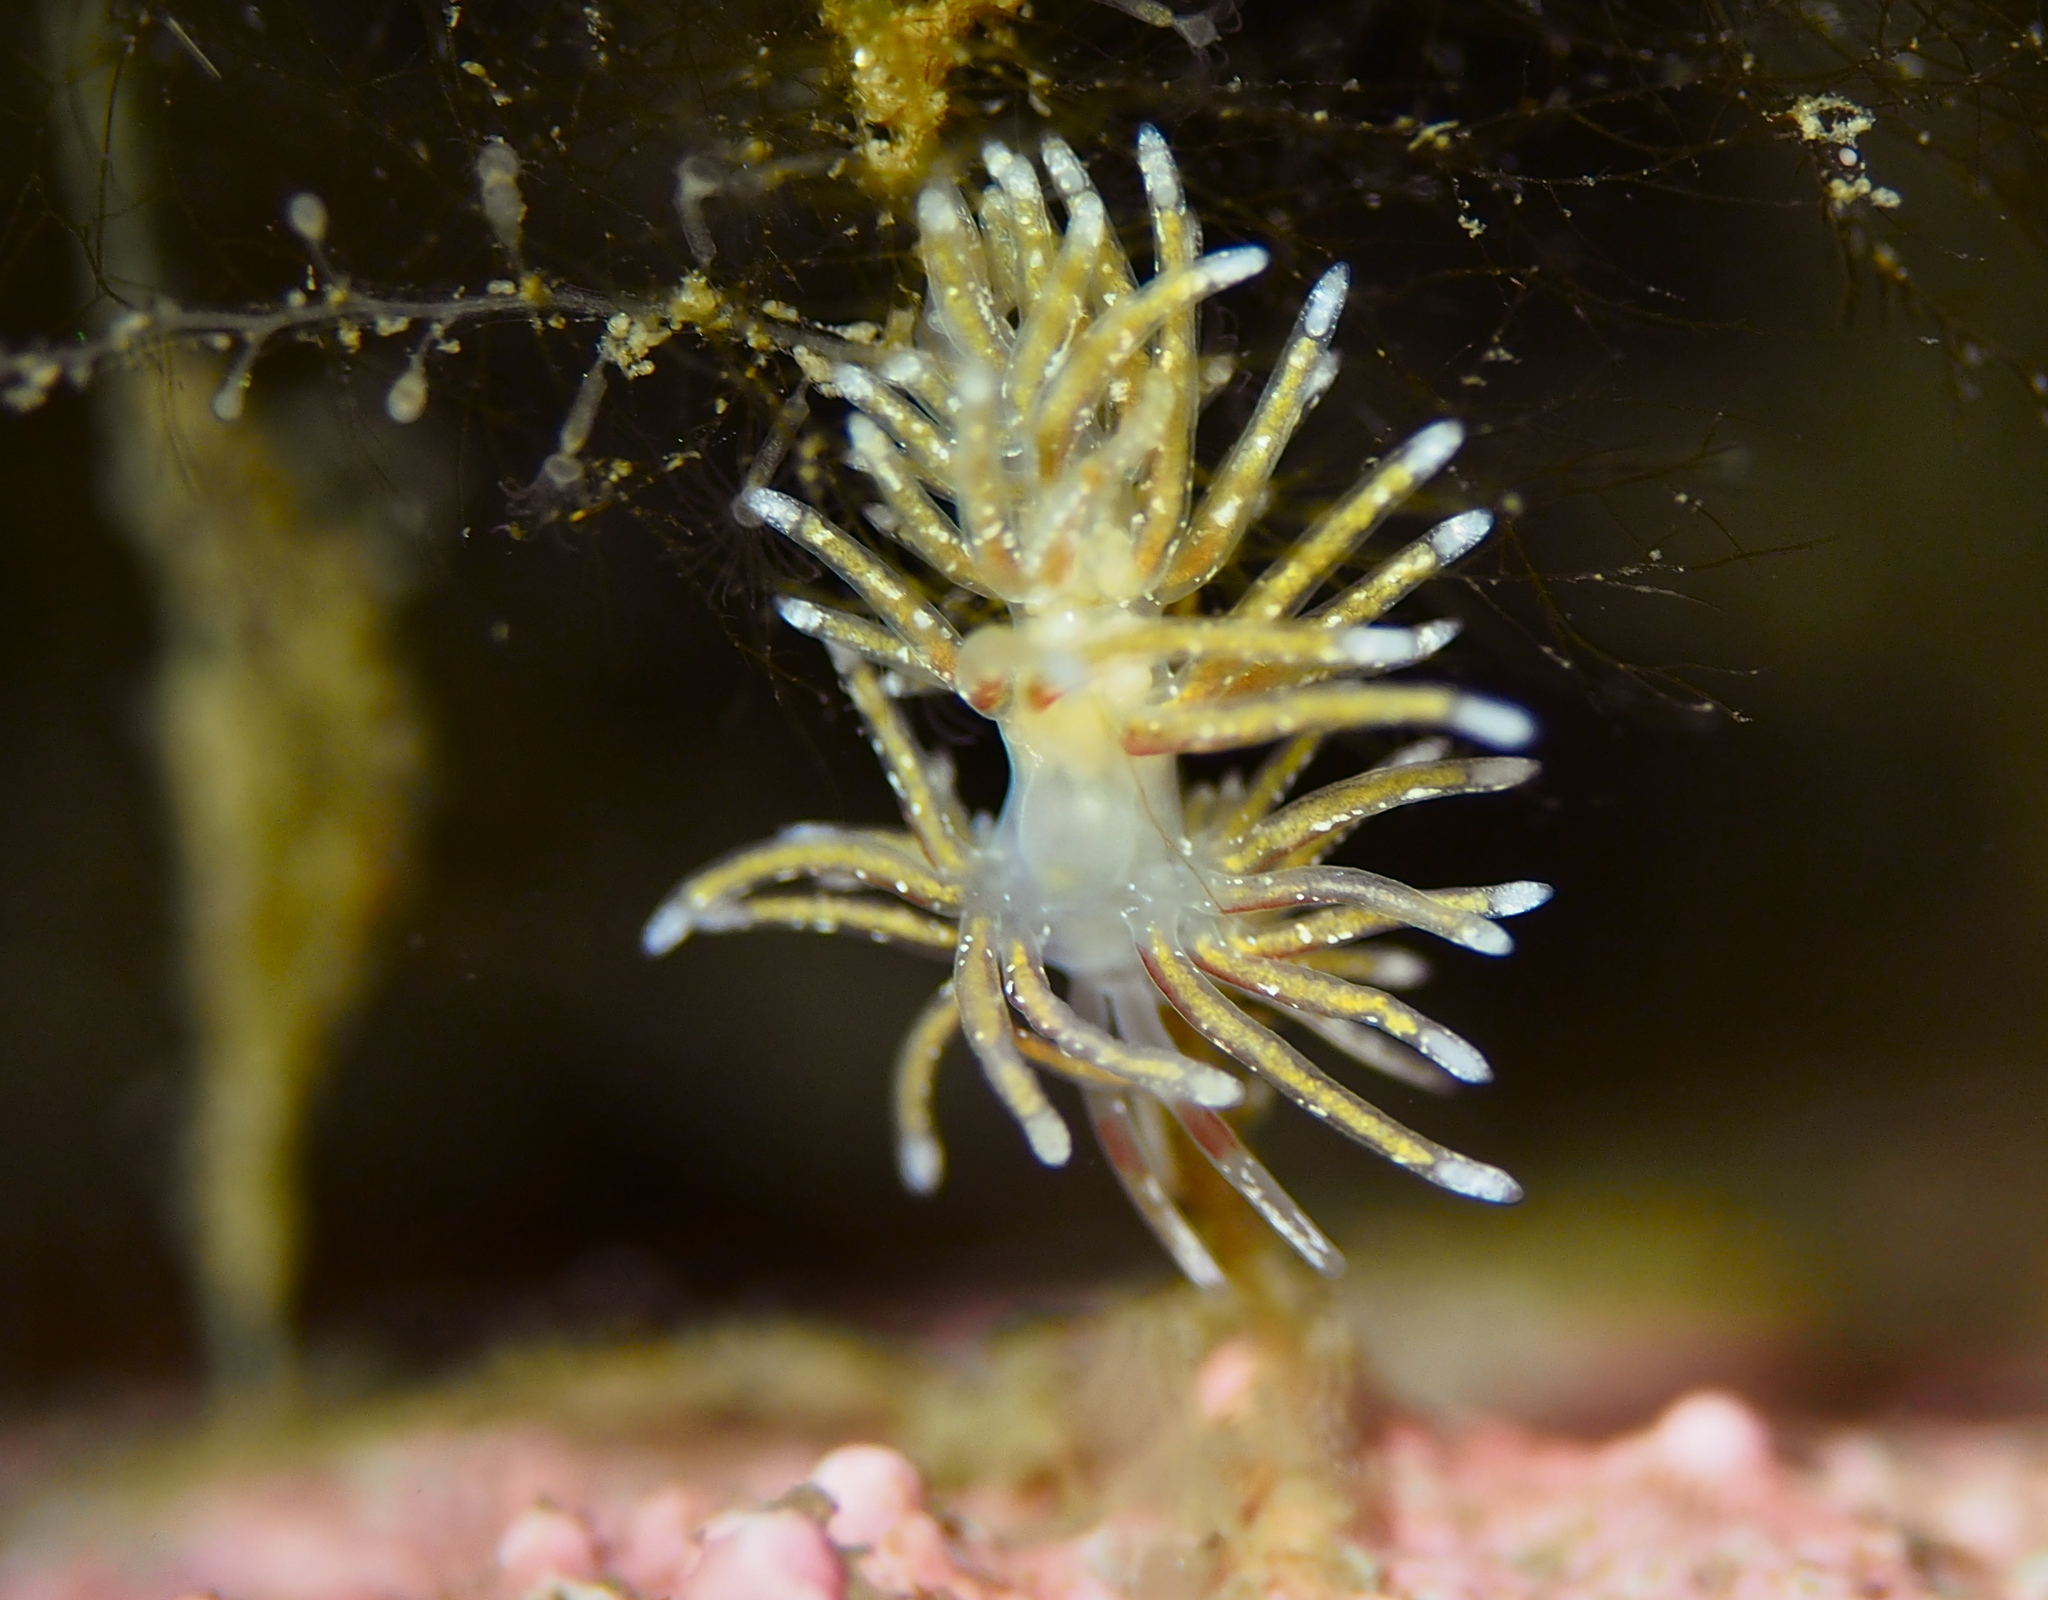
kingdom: Animalia
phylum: Mollusca
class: Gastropoda
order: Nudibranchia
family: Trinchesiidae
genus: Rubramoena
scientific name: Rubramoena rubescens
